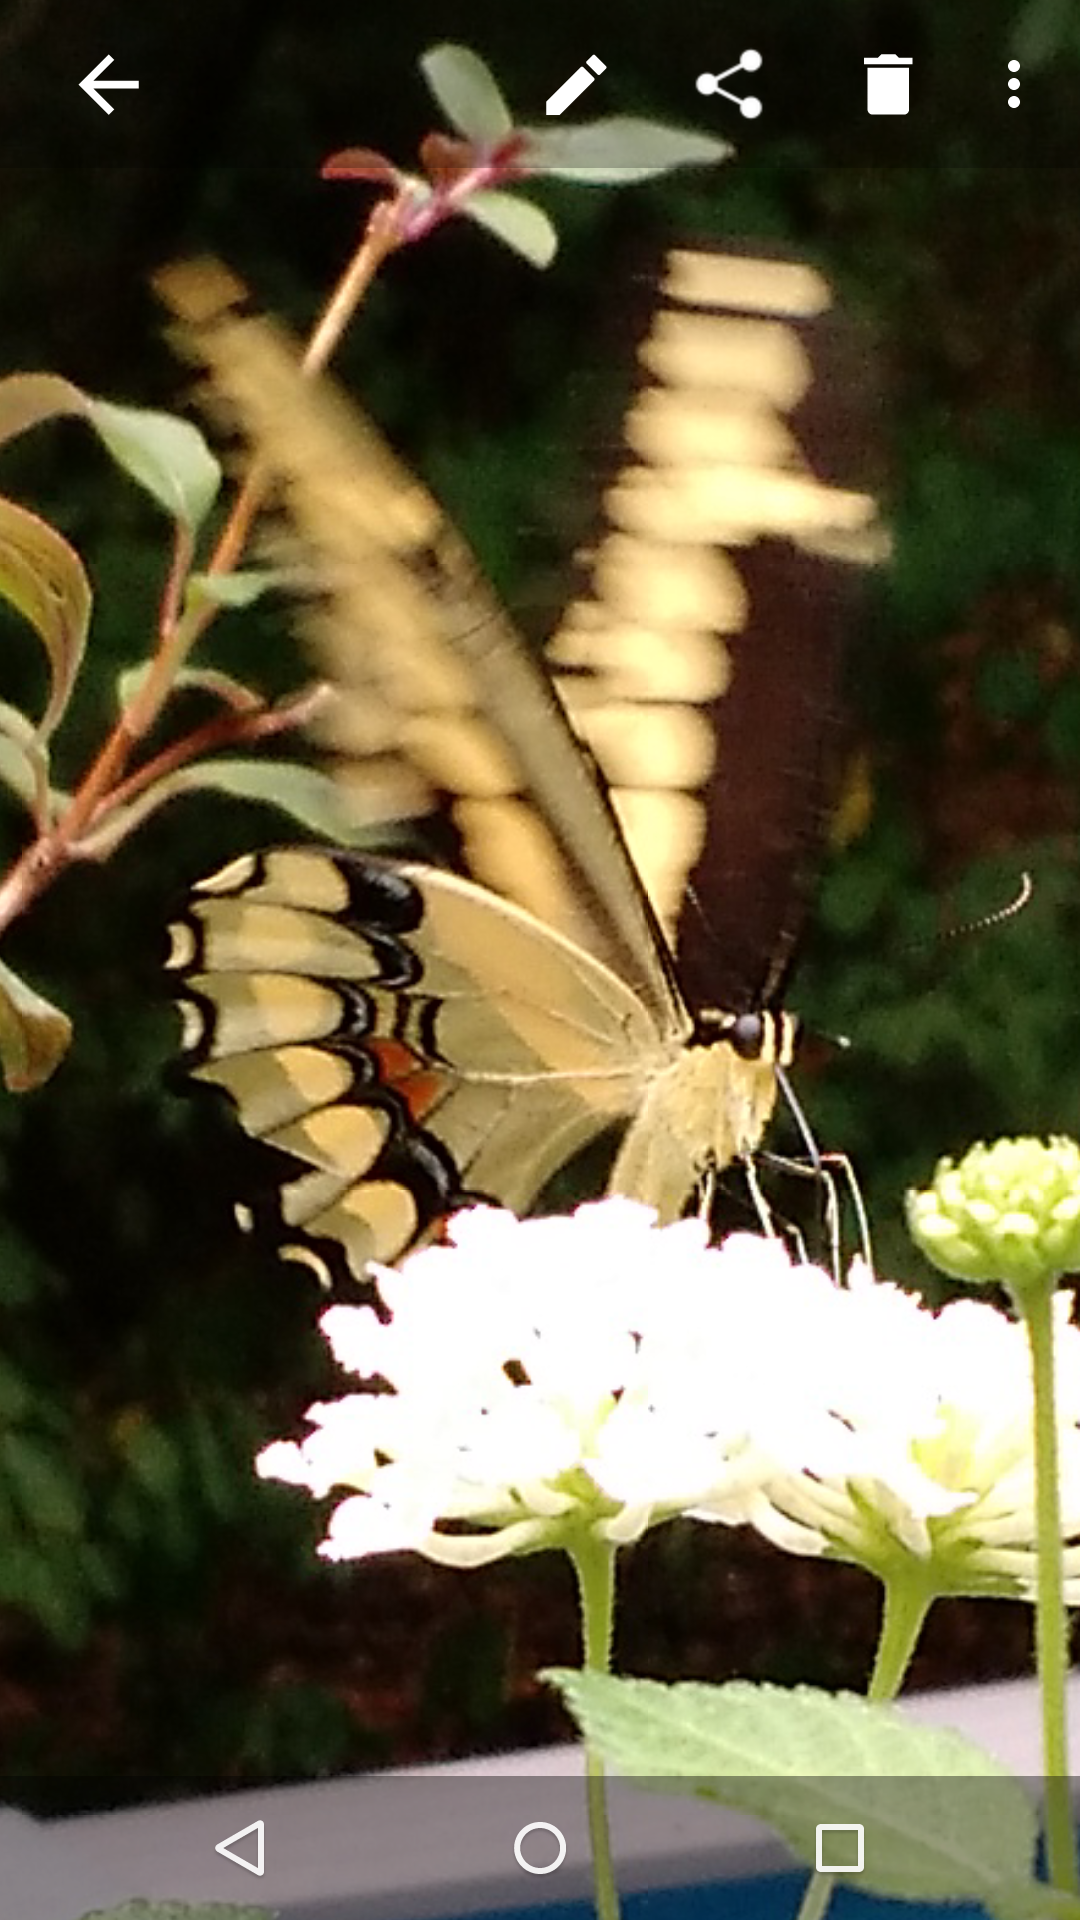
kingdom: Animalia
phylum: Arthropoda
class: Insecta
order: Lepidoptera
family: Papilionidae
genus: Papilio
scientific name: Papilio cresphontes
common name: Giant swallowtail
